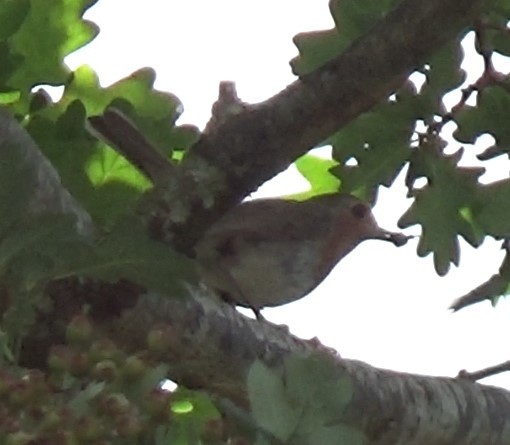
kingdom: Animalia
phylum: Chordata
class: Aves
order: Passeriformes
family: Muscicapidae
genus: Erithacus
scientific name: Erithacus rubecula
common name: European robin
